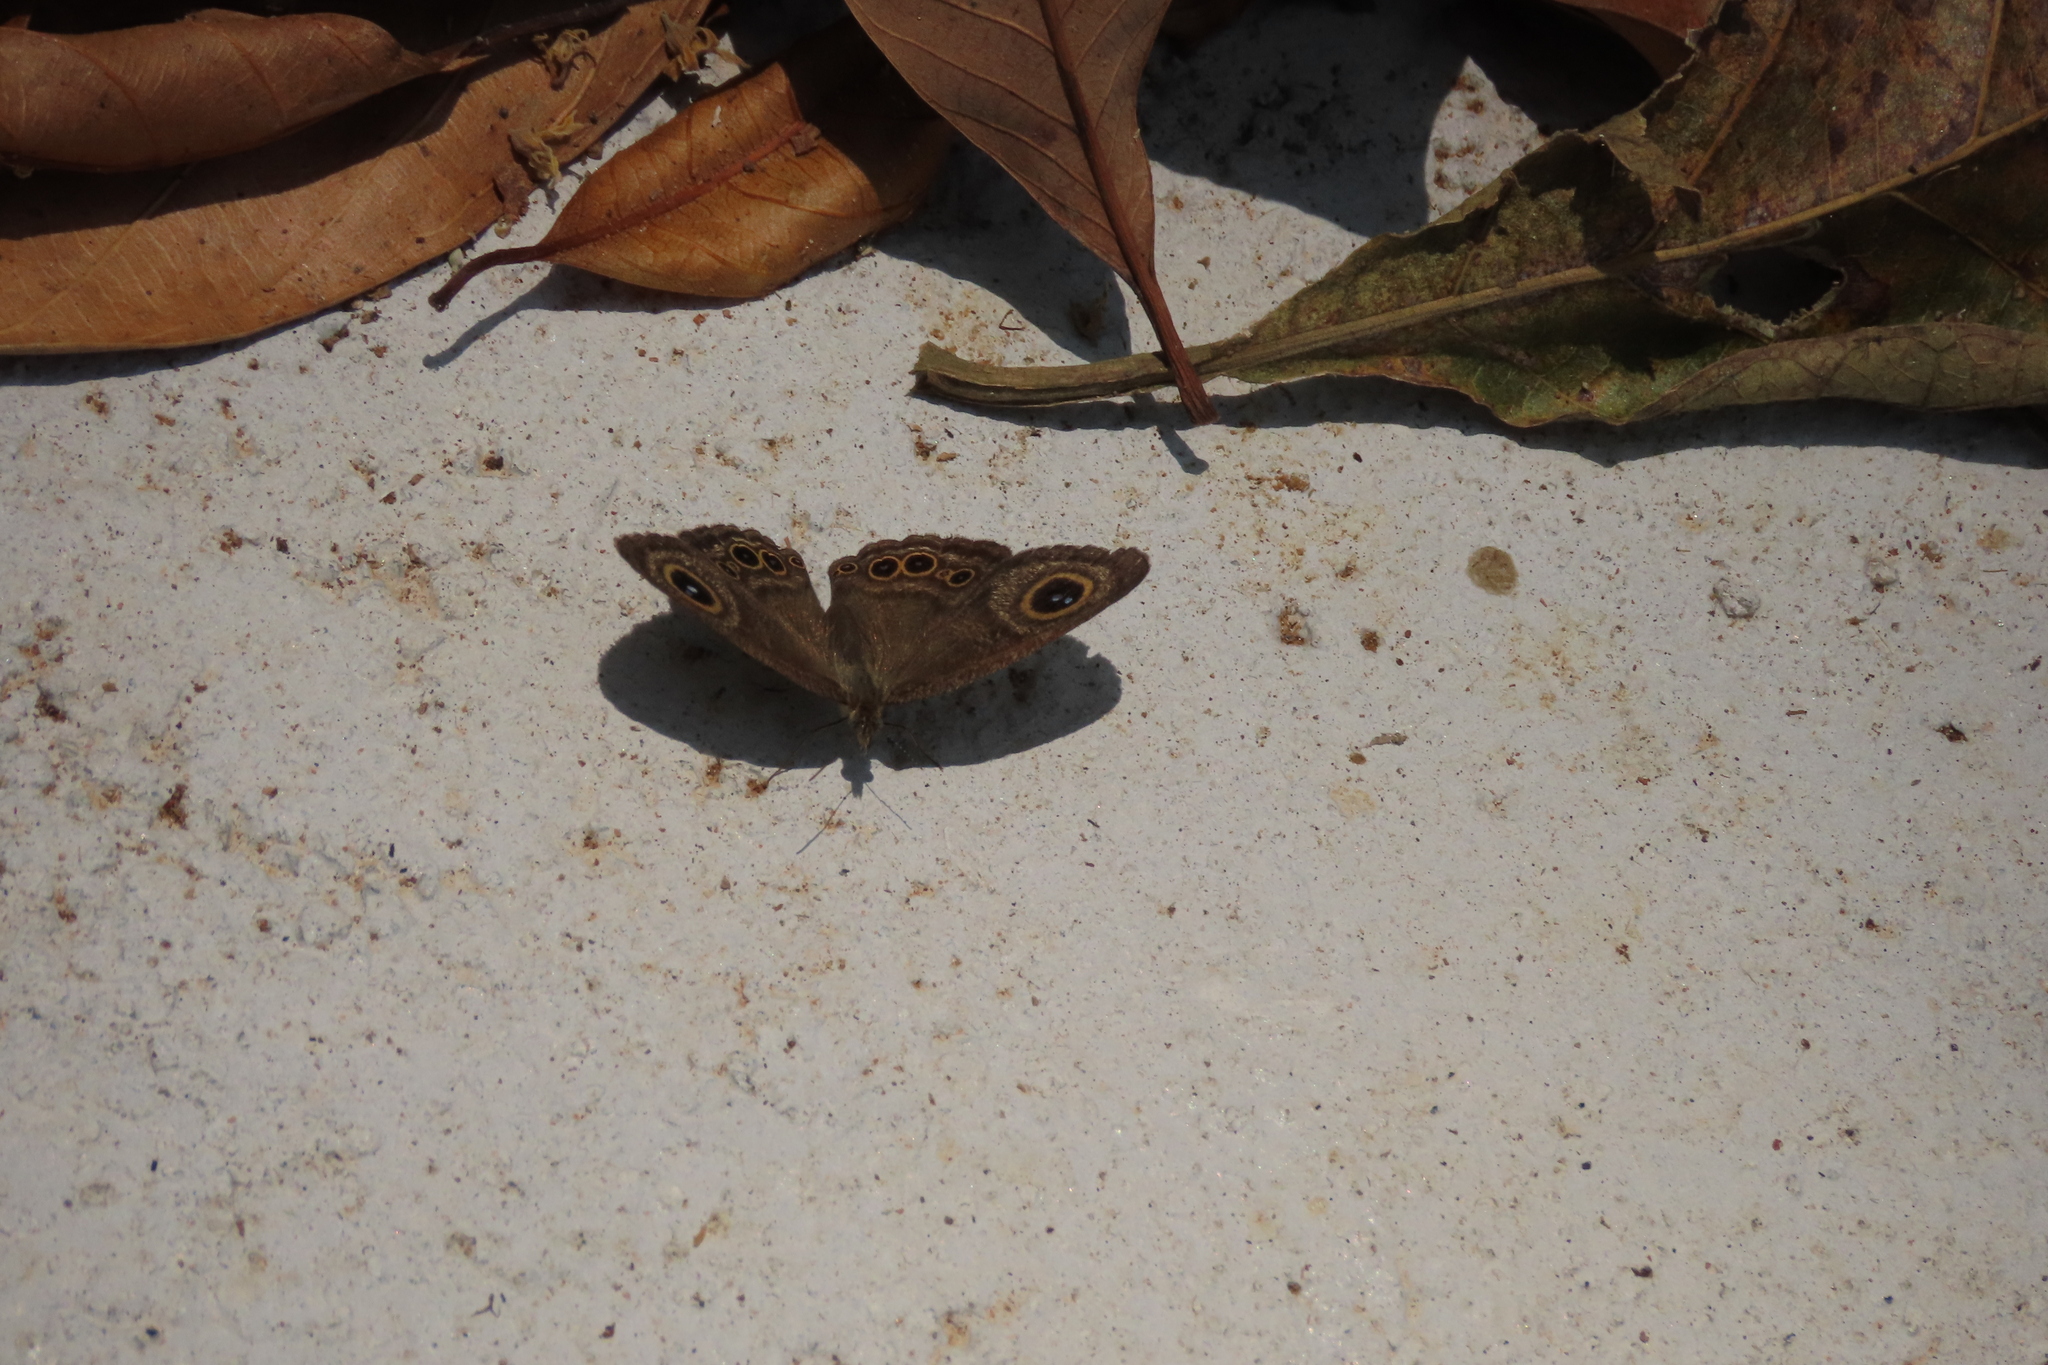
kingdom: Animalia
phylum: Arthropoda
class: Insecta
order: Lepidoptera
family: Nymphalidae
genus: Ypthima
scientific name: Ypthima baldus
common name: Common five-ring
